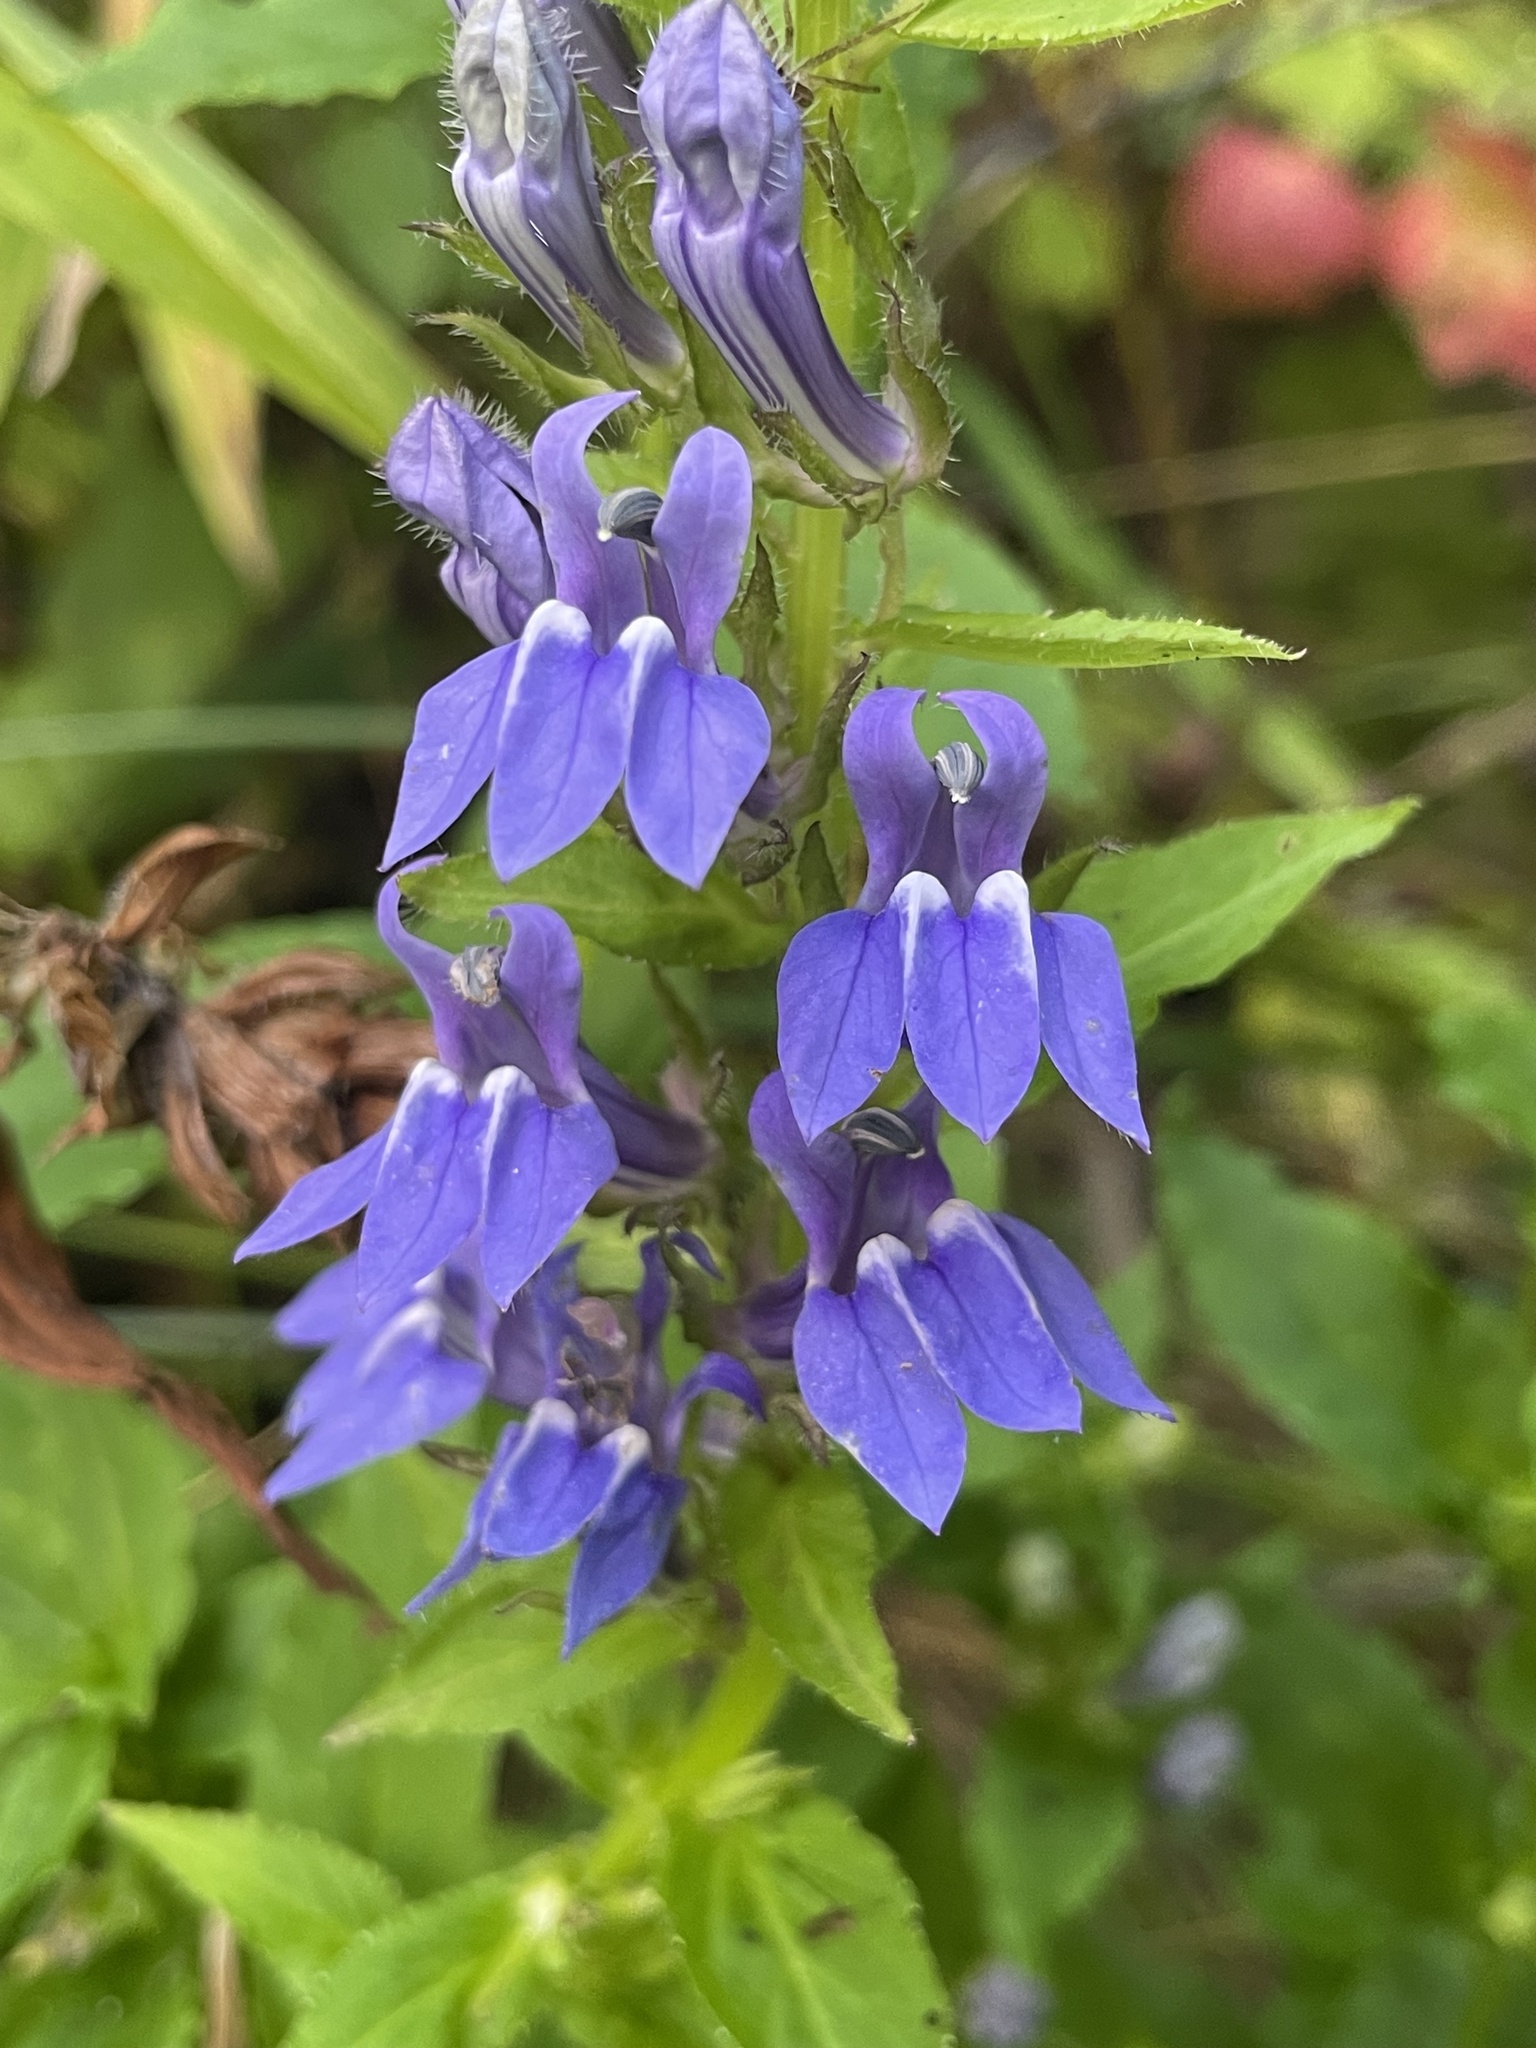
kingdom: Plantae
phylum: Tracheophyta
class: Magnoliopsida
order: Asterales
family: Campanulaceae
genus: Lobelia
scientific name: Lobelia siphilitica
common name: Great lobelia
